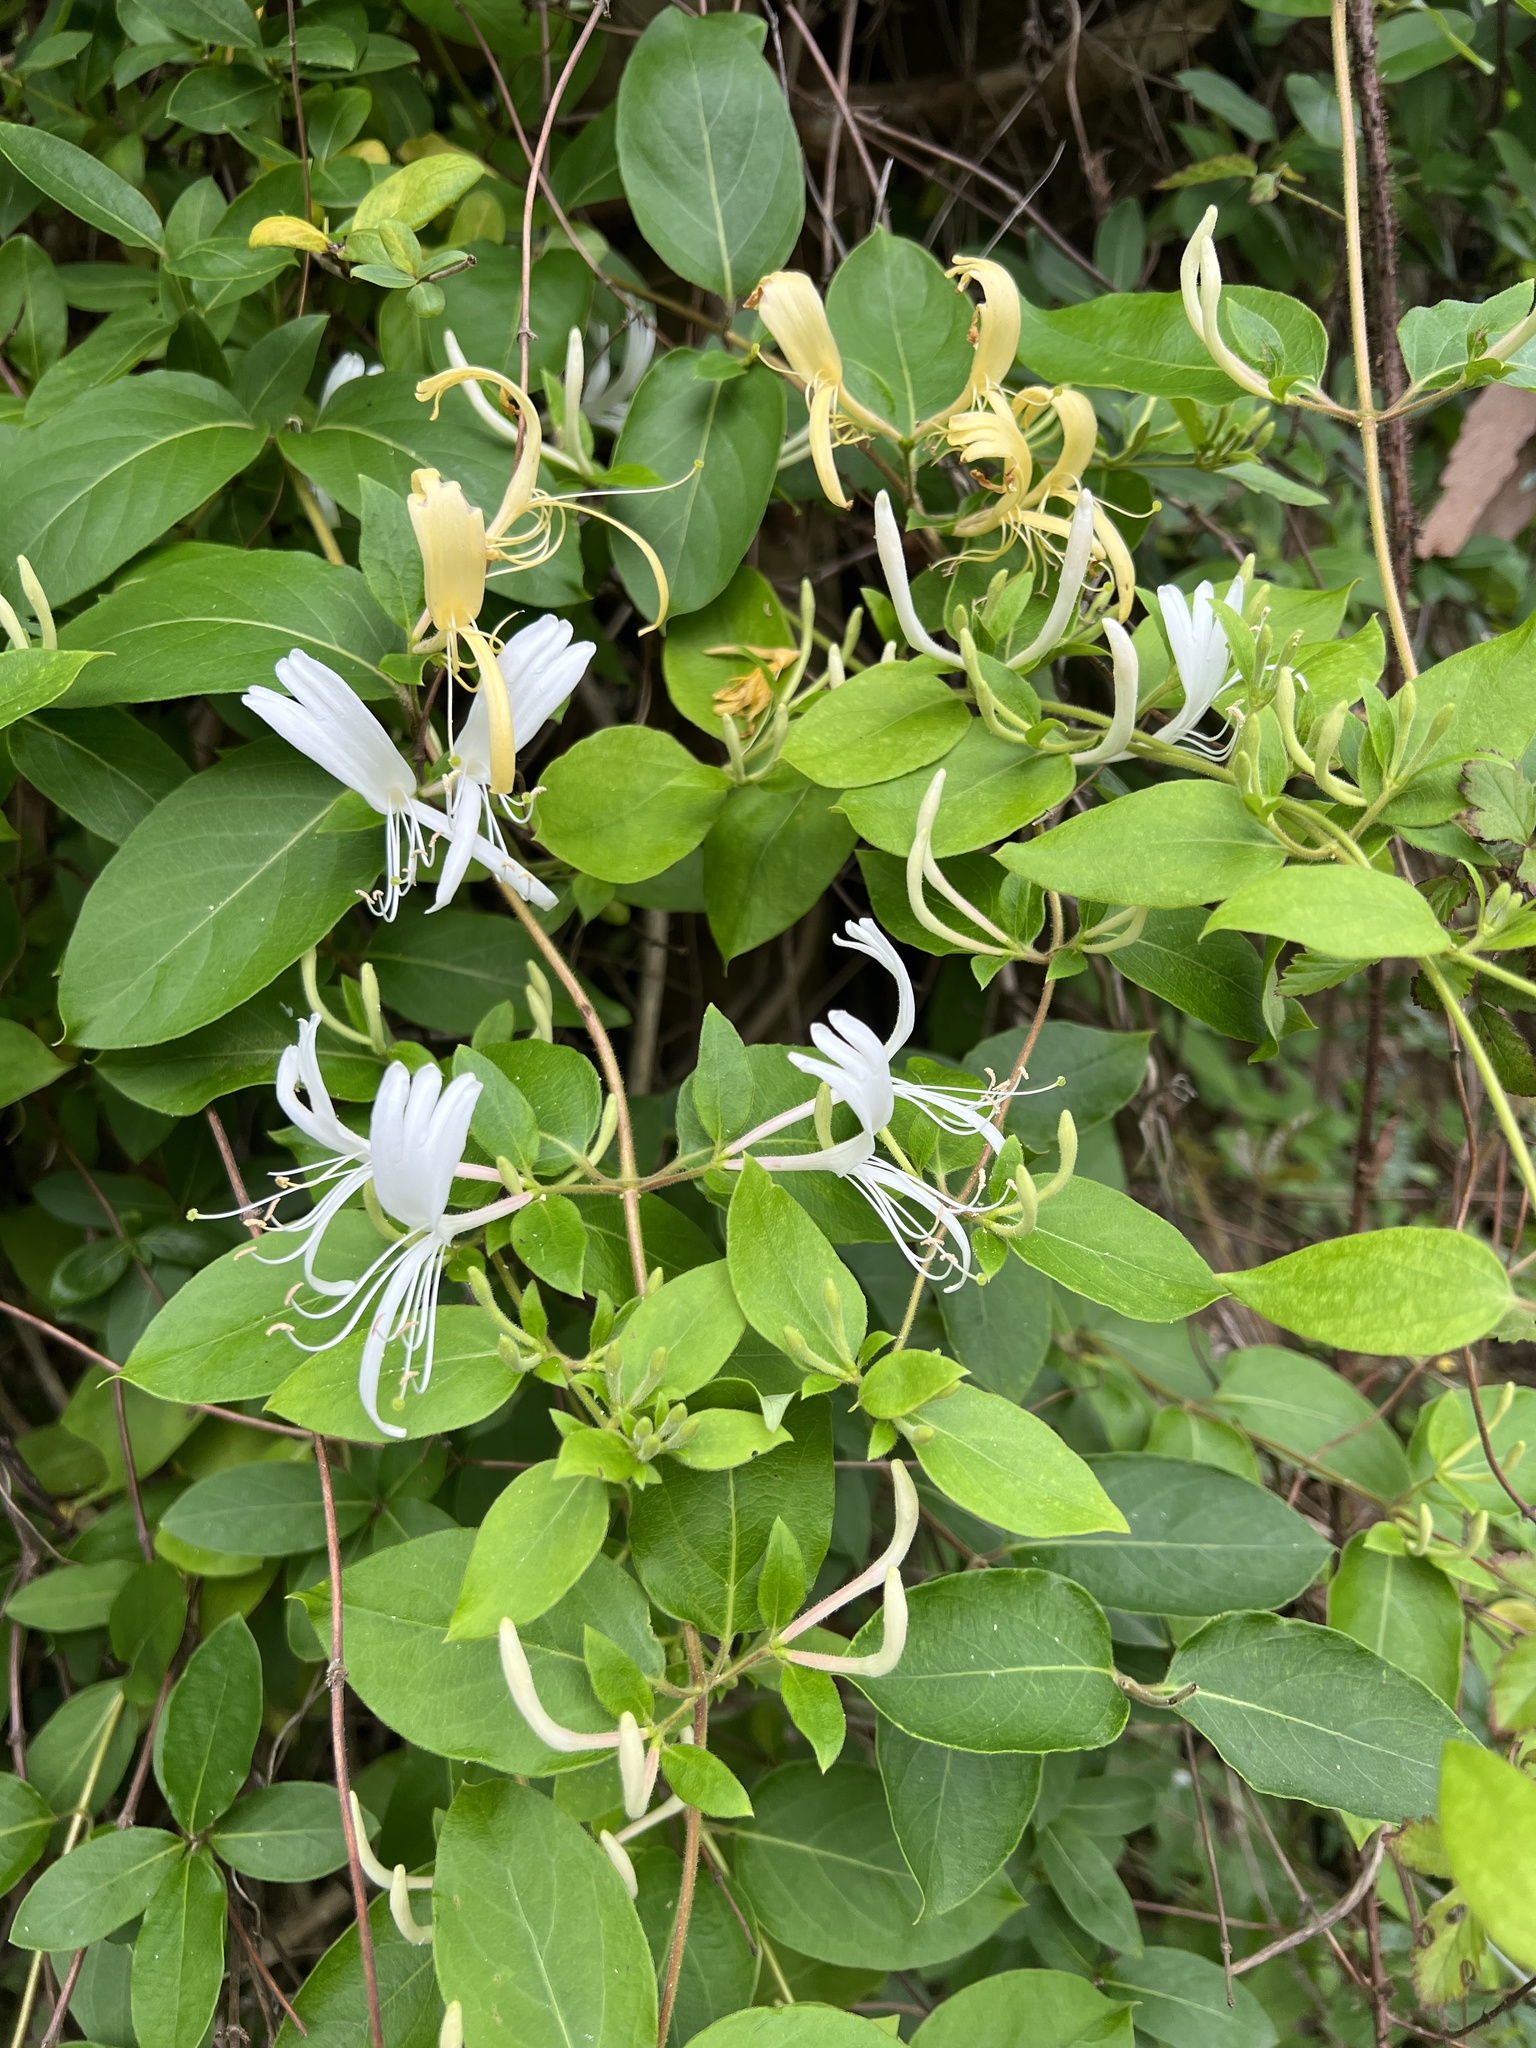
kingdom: Plantae
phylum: Tracheophyta
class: Magnoliopsida
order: Dipsacales
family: Caprifoliaceae
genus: Lonicera
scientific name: Lonicera japonica
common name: Japanese honeysuckle
